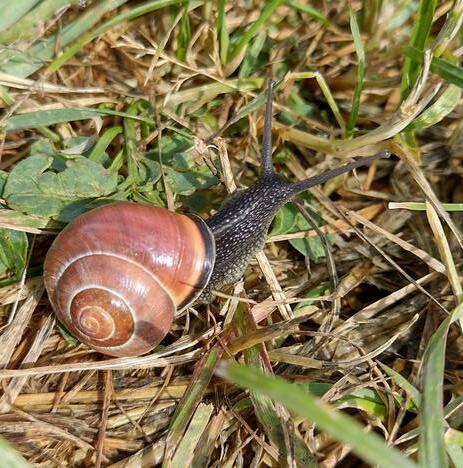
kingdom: Animalia
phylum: Mollusca
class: Gastropoda
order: Stylommatophora
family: Helicidae
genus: Cepaea
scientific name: Cepaea nemoralis
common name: Grovesnail
